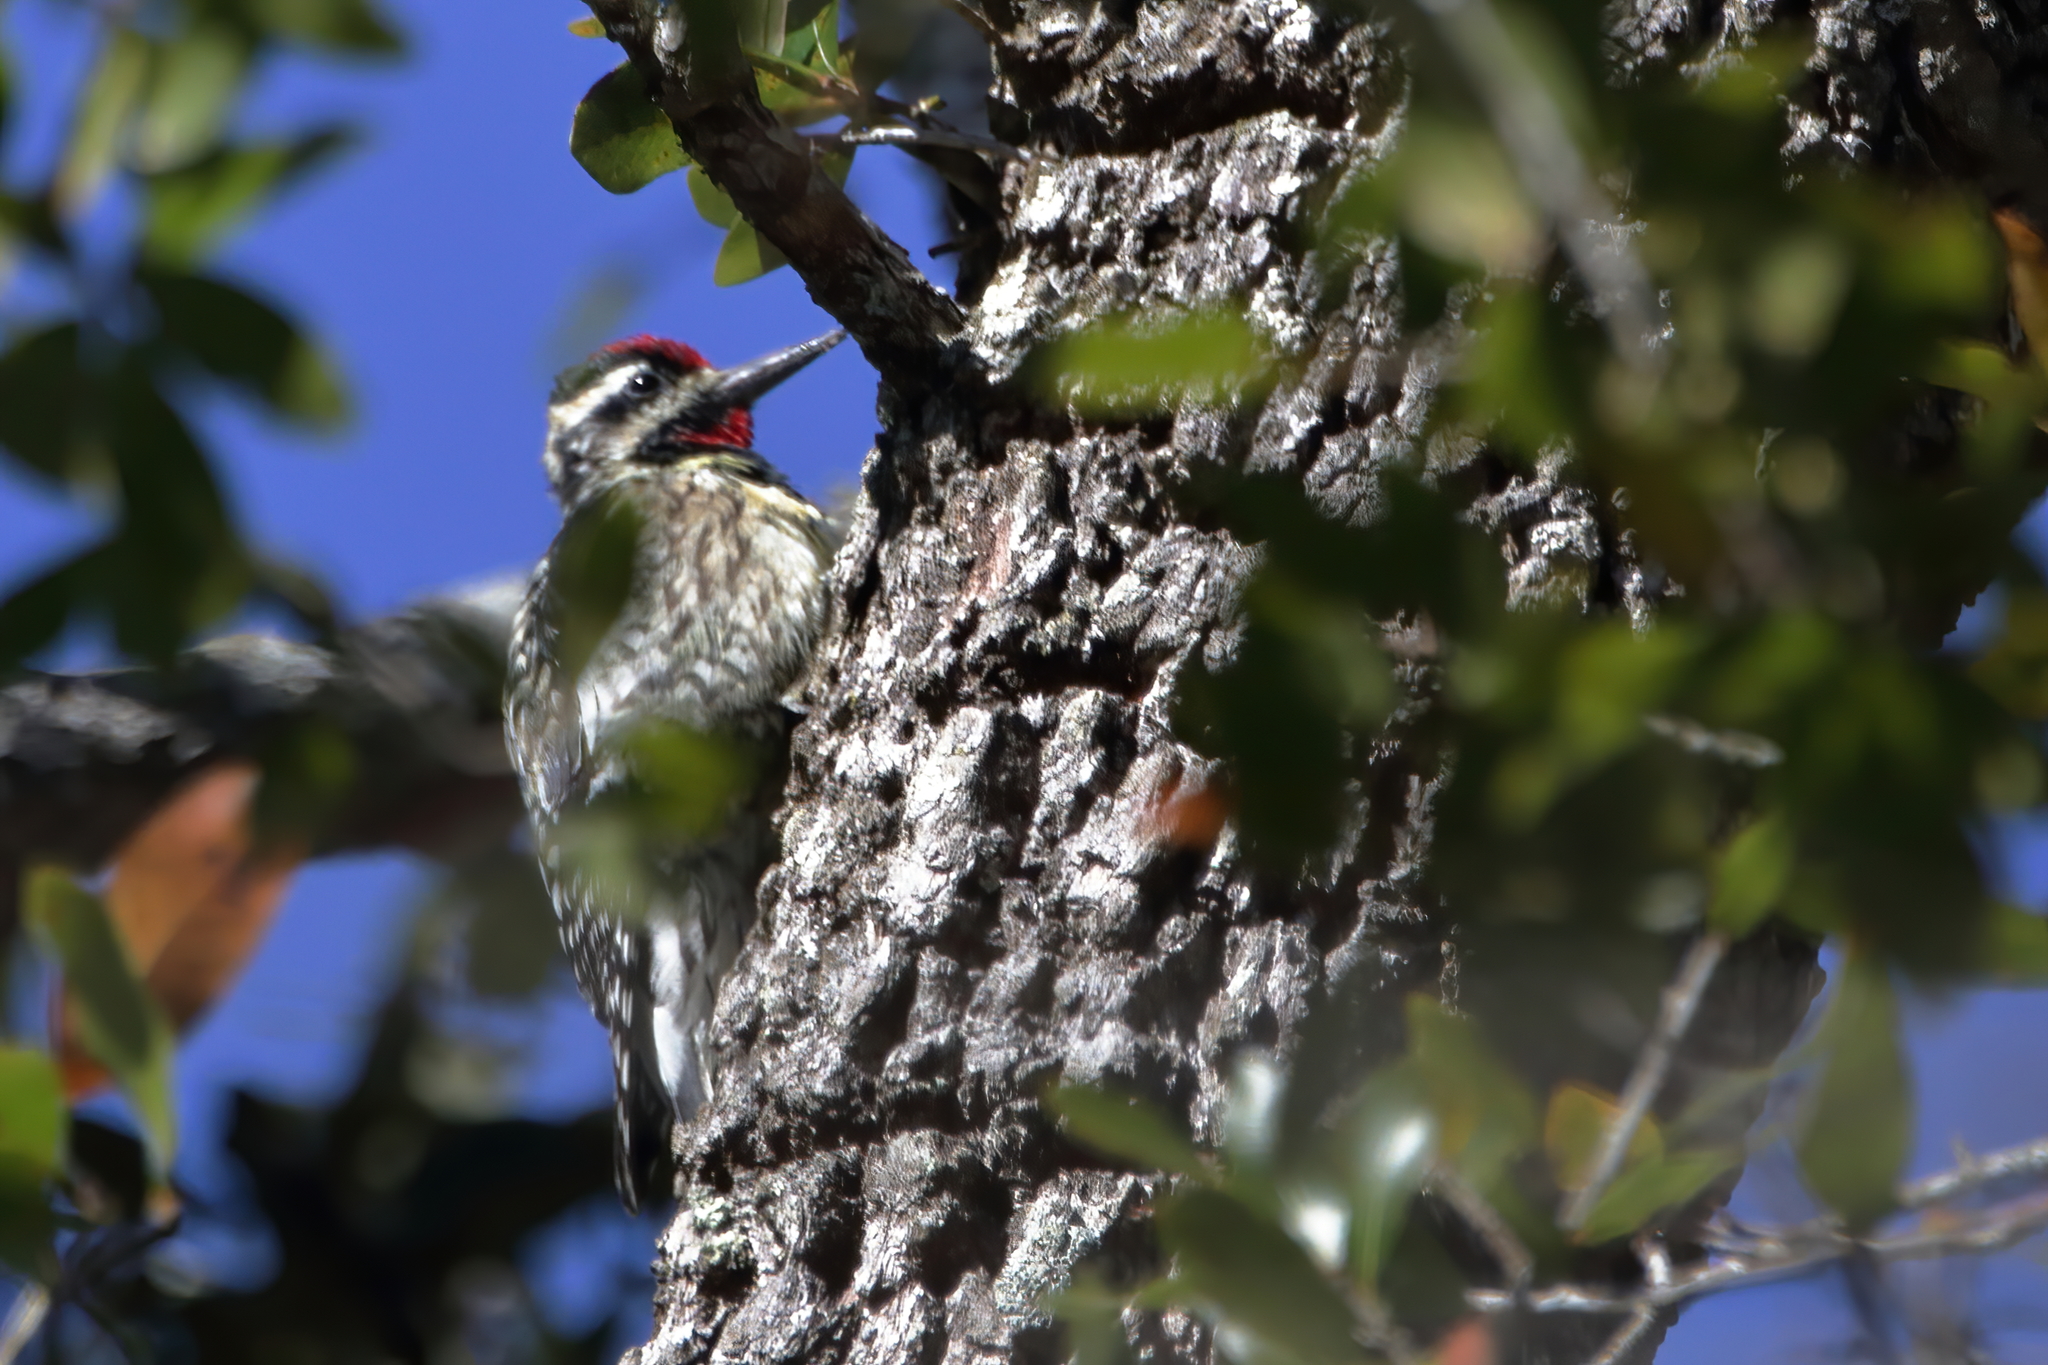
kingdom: Animalia
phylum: Chordata
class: Aves
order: Piciformes
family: Picidae
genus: Sphyrapicus
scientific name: Sphyrapicus varius
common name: Yellow-bellied sapsucker
